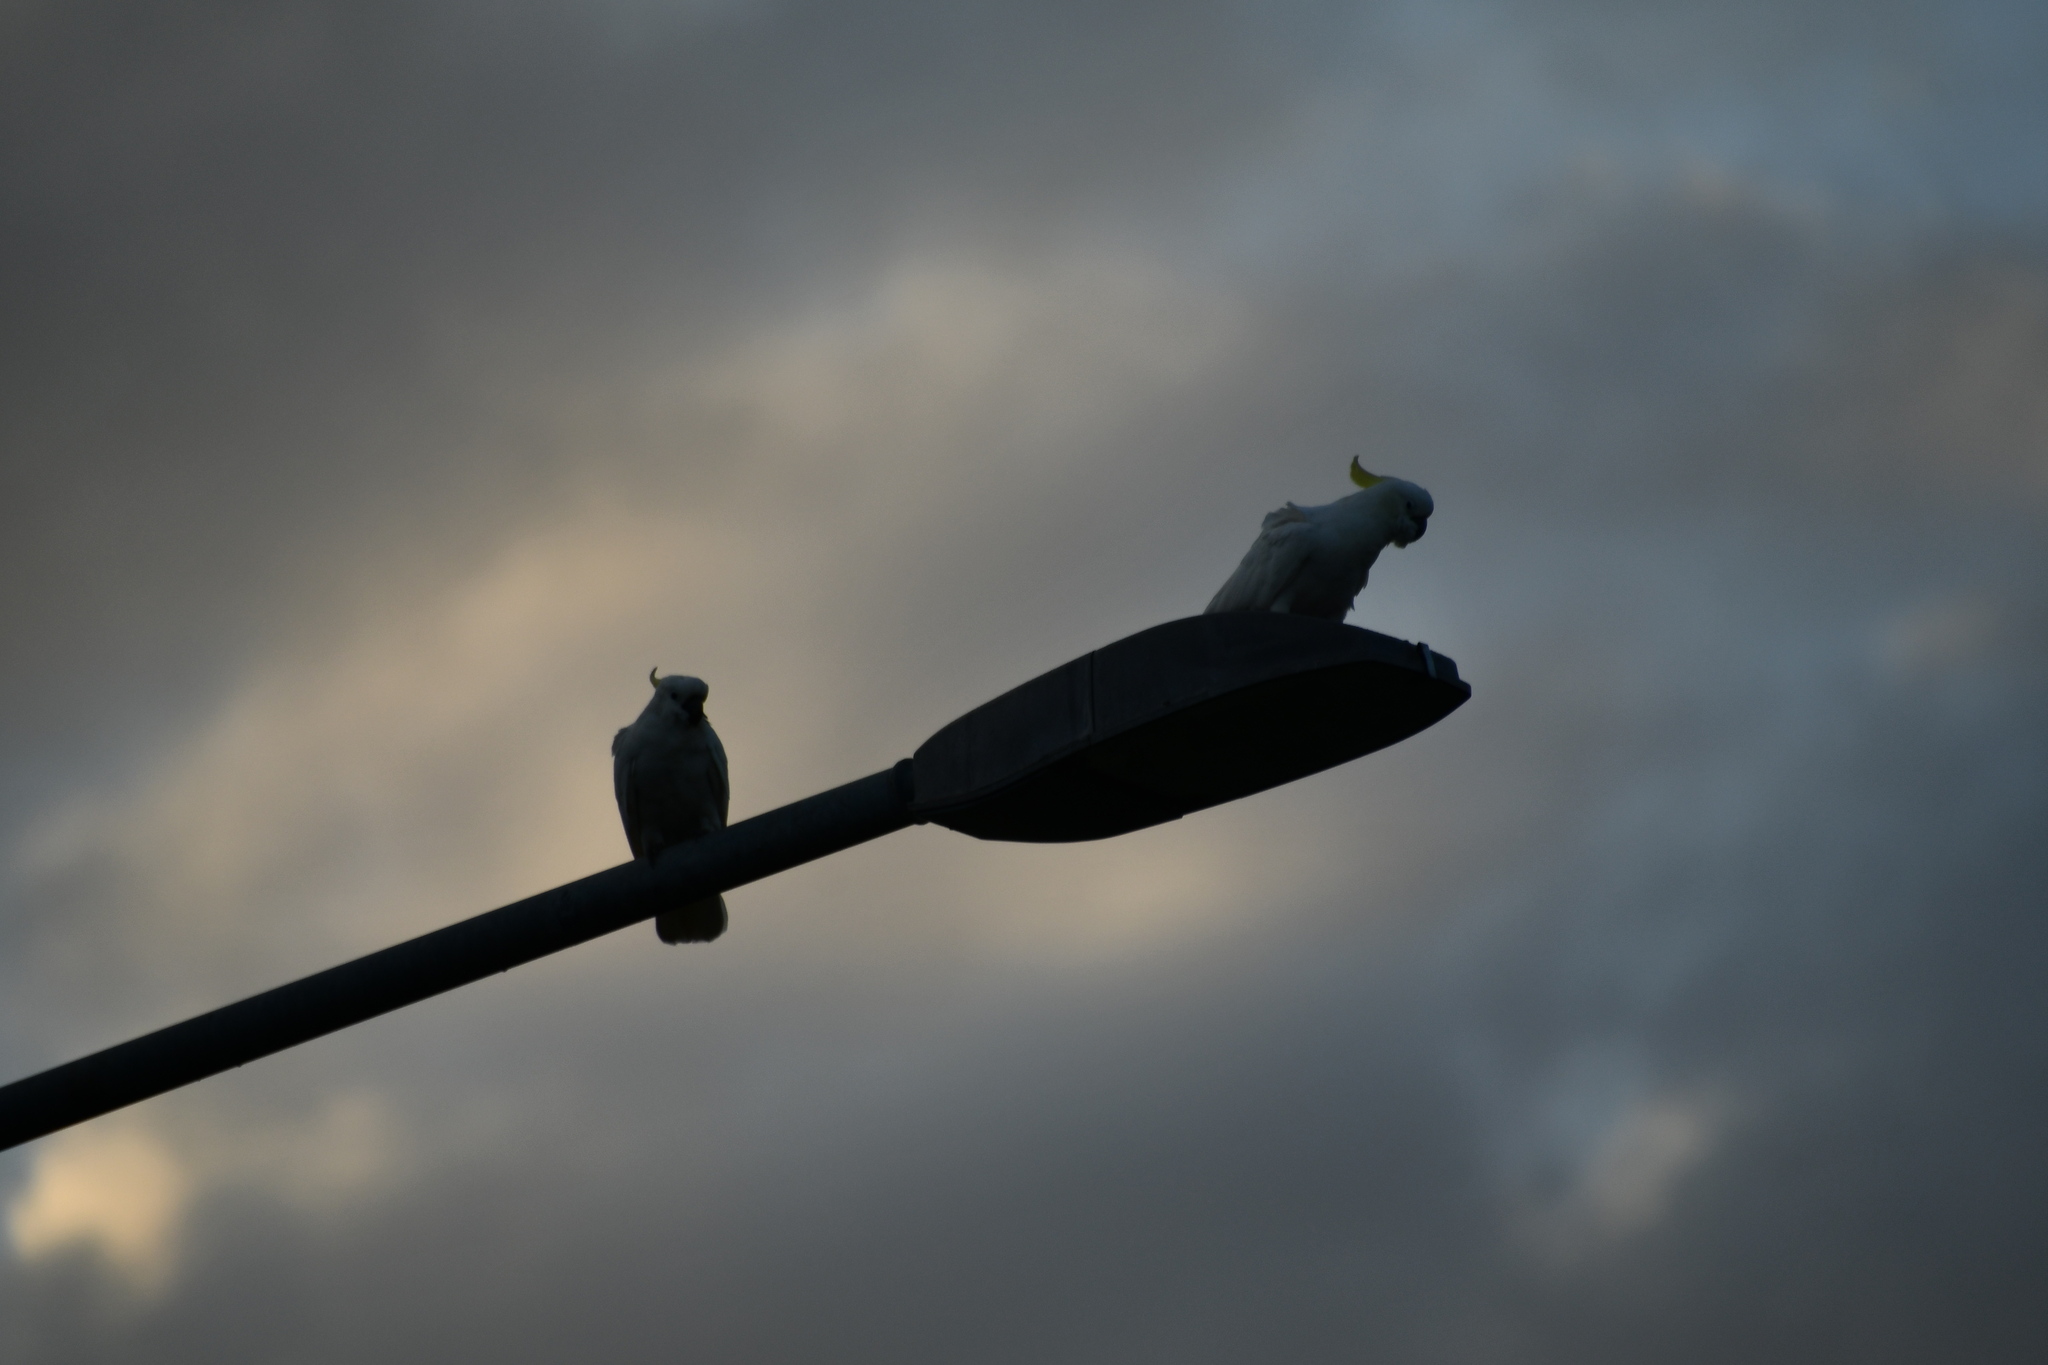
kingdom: Animalia
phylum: Chordata
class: Aves
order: Psittaciformes
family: Psittacidae
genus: Cacatua
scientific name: Cacatua galerita
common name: Sulphur-crested cockatoo
